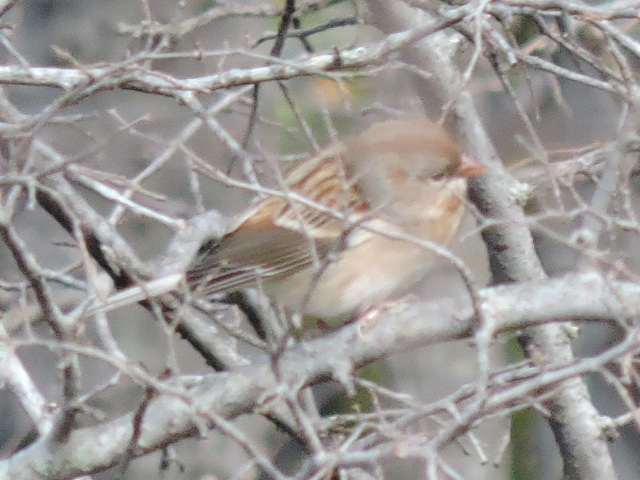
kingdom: Animalia
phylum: Chordata
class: Aves
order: Passeriformes
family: Passerellidae
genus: Spizella
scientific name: Spizella pusilla
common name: Field sparrow
